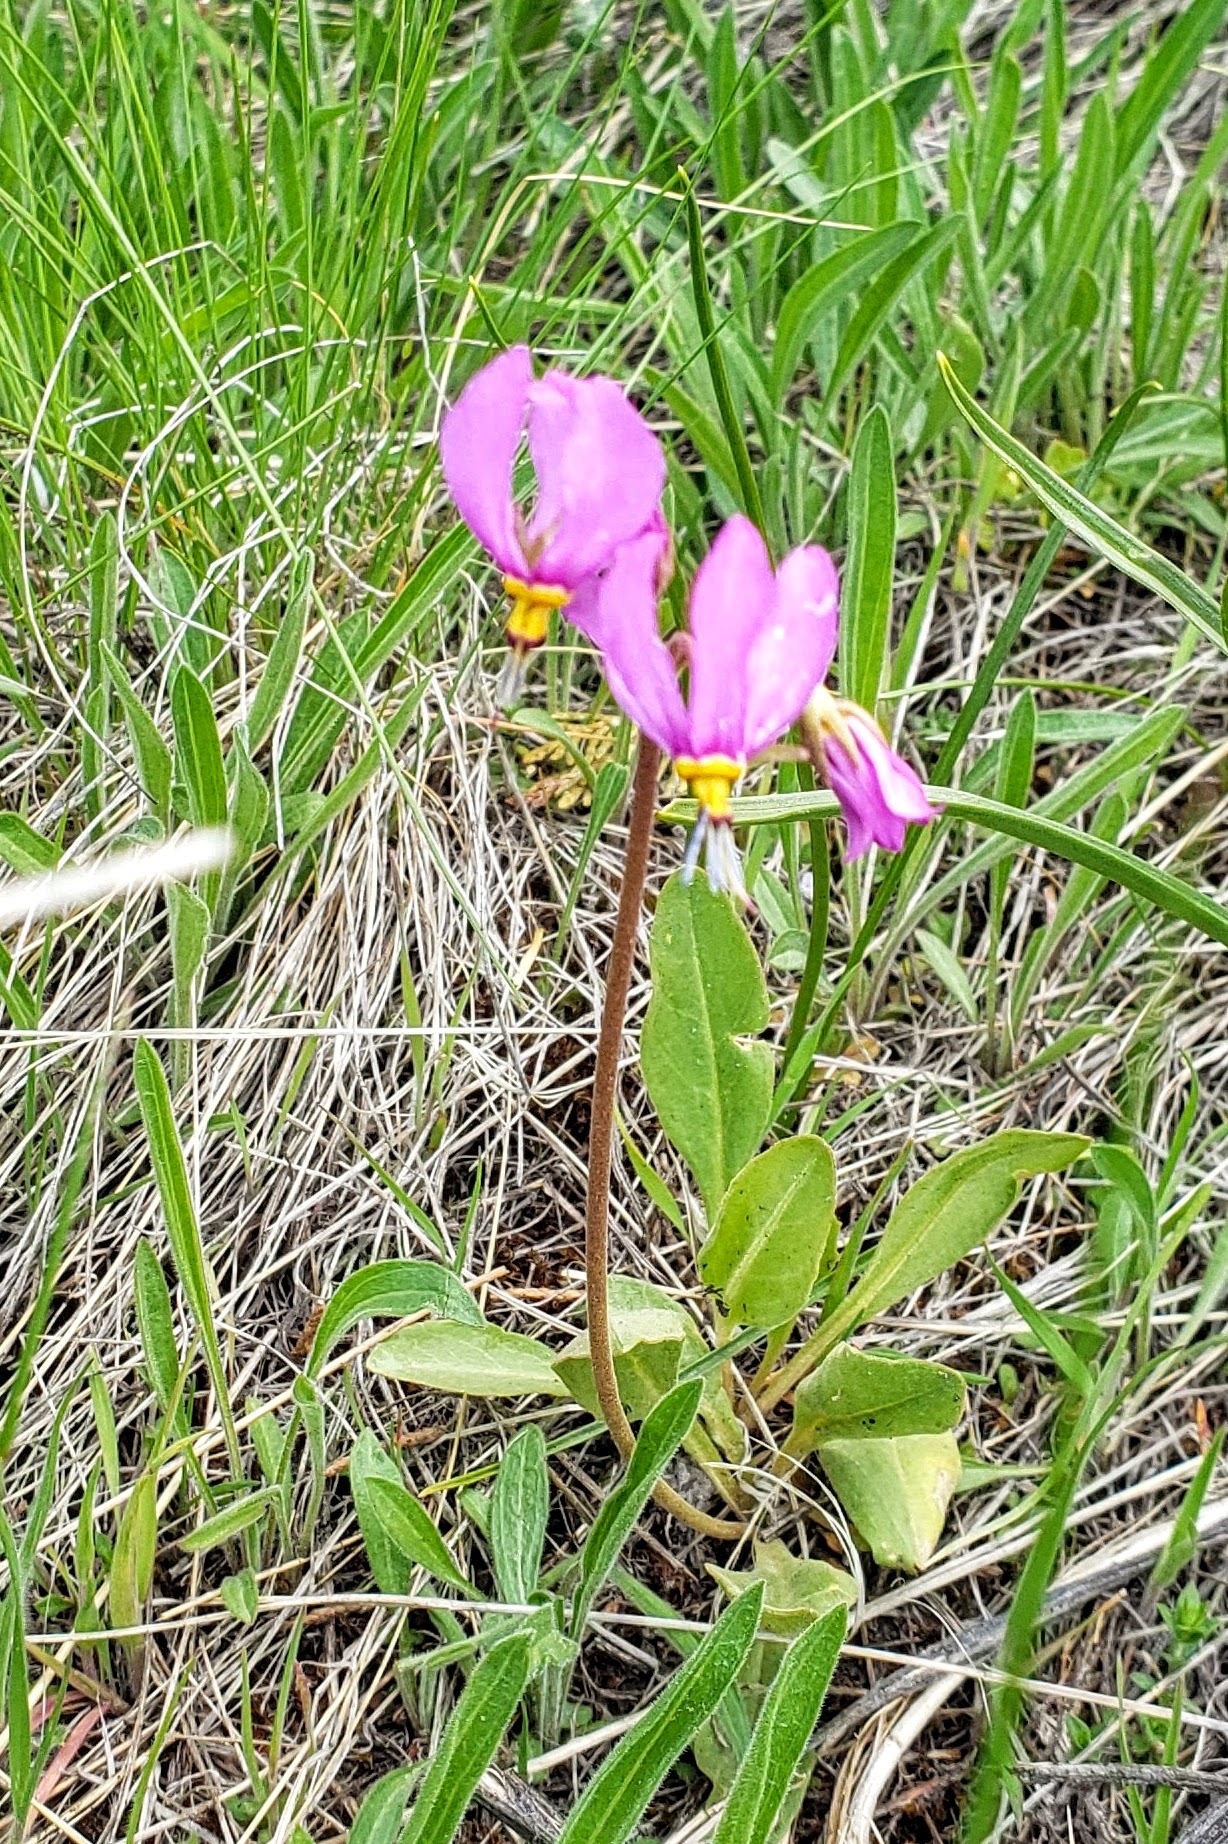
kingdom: Plantae
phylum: Tracheophyta
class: Magnoliopsida
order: Ericales
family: Primulaceae
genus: Dodecatheon
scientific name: Dodecatheon pulchellum
